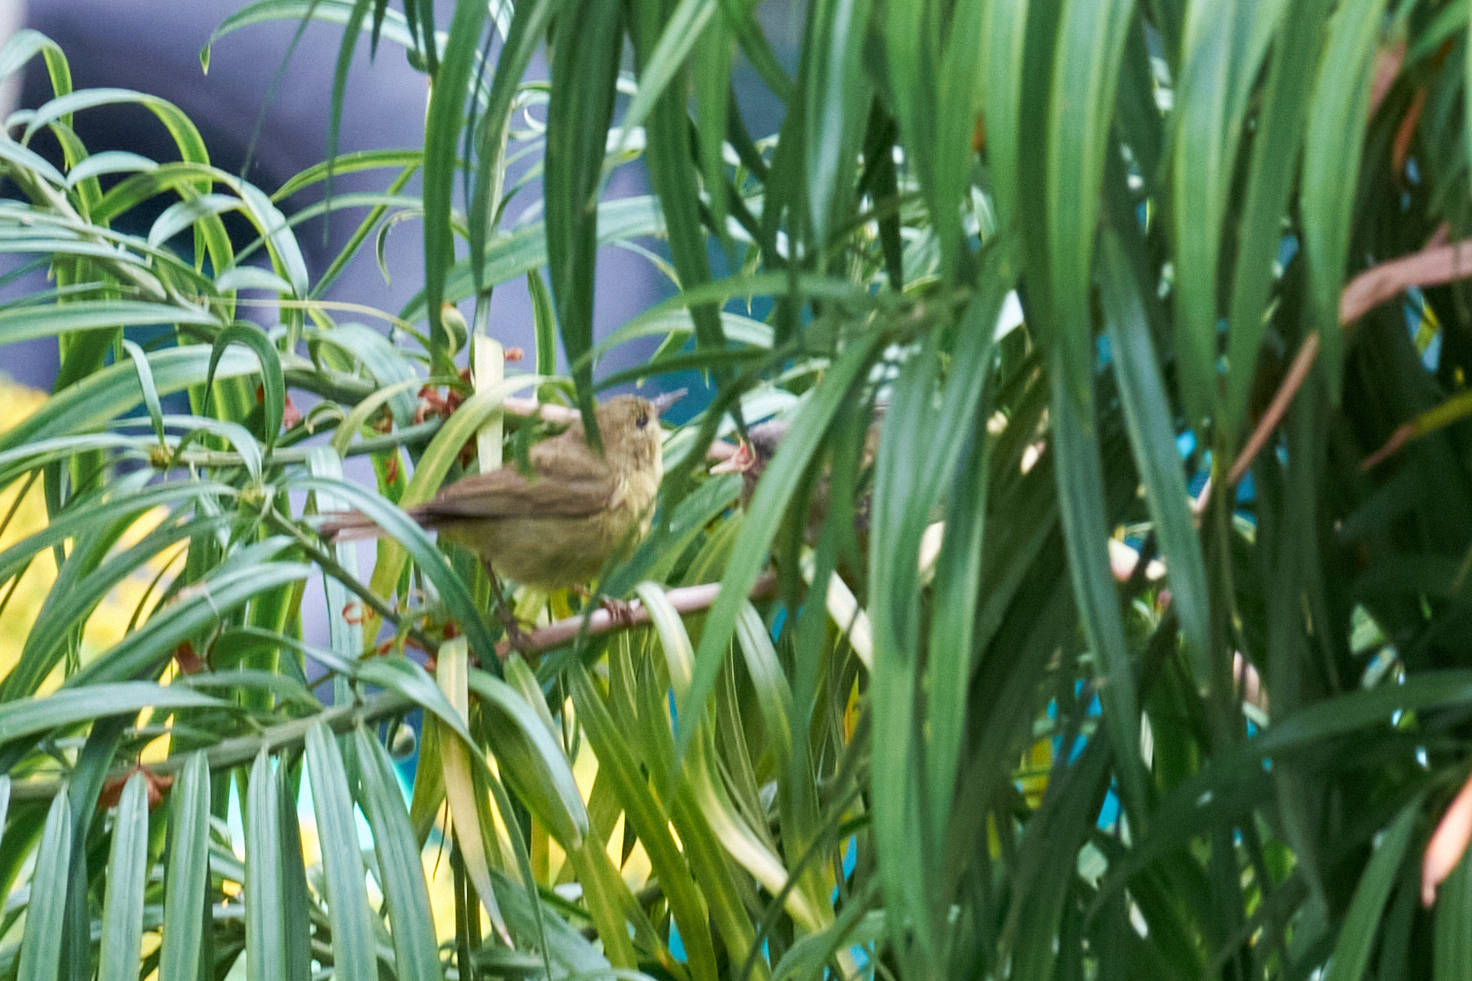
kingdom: Animalia
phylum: Chordata
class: Aves
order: Passeriformes
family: Parulidae
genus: Leiothlypis
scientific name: Leiothlypis celata
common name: Orange-crowned warbler
